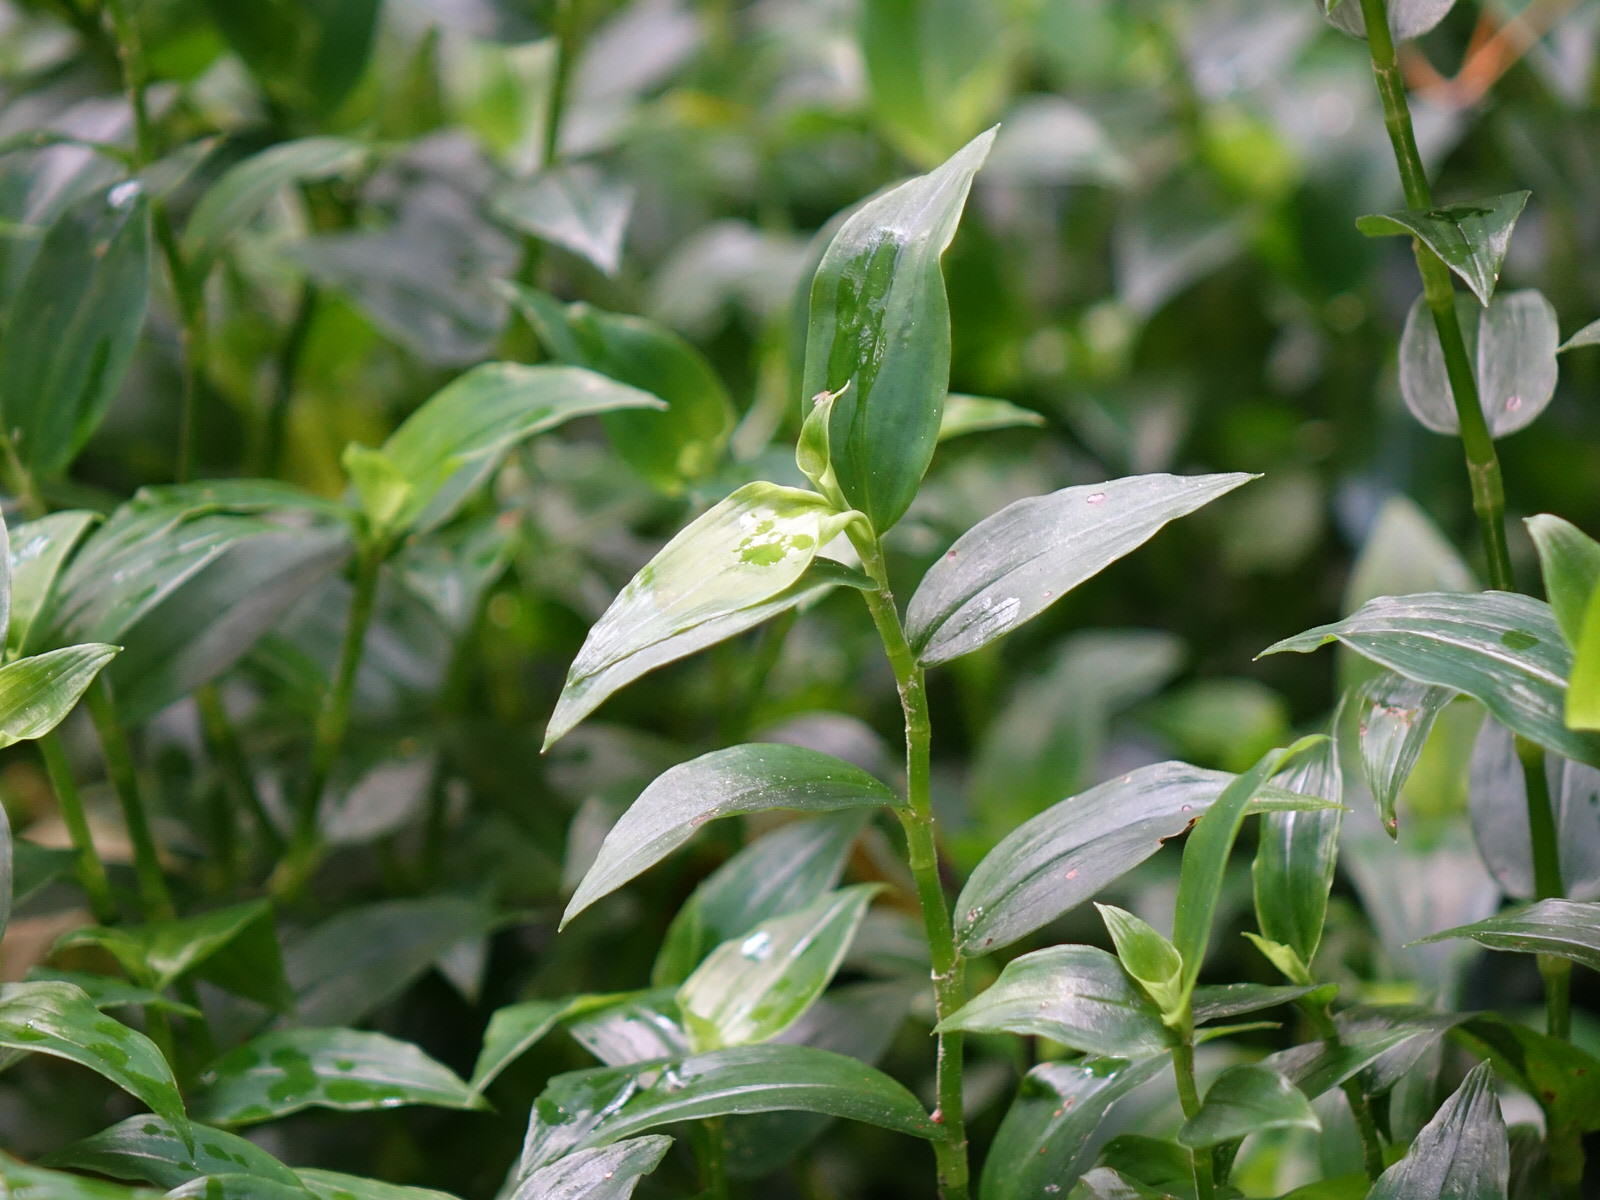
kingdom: Plantae
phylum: Tracheophyta
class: Liliopsida
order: Commelinales
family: Commelinaceae
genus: Tradescantia
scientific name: Tradescantia fluminensis
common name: Wandering-jew
